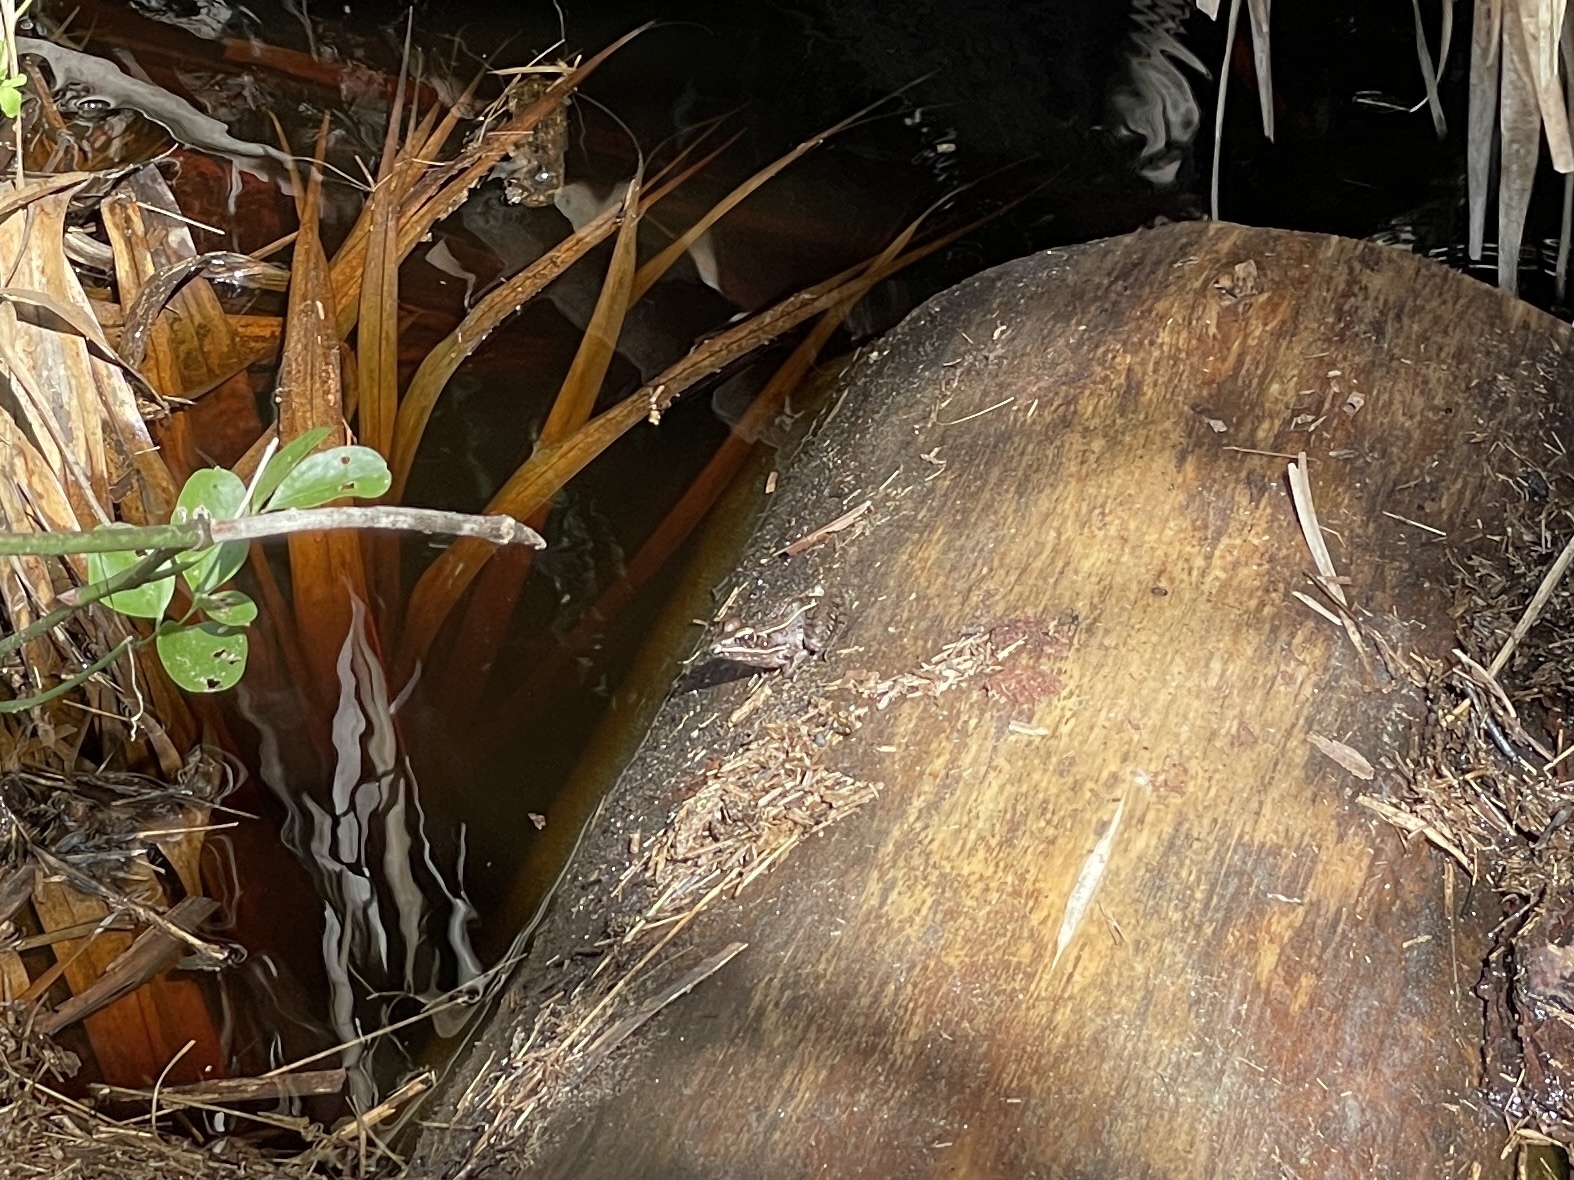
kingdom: Animalia
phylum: Chordata
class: Amphibia
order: Anura
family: Ranidae
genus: Lithobates
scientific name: Lithobates sphenocephalus
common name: Southern leopard frog
